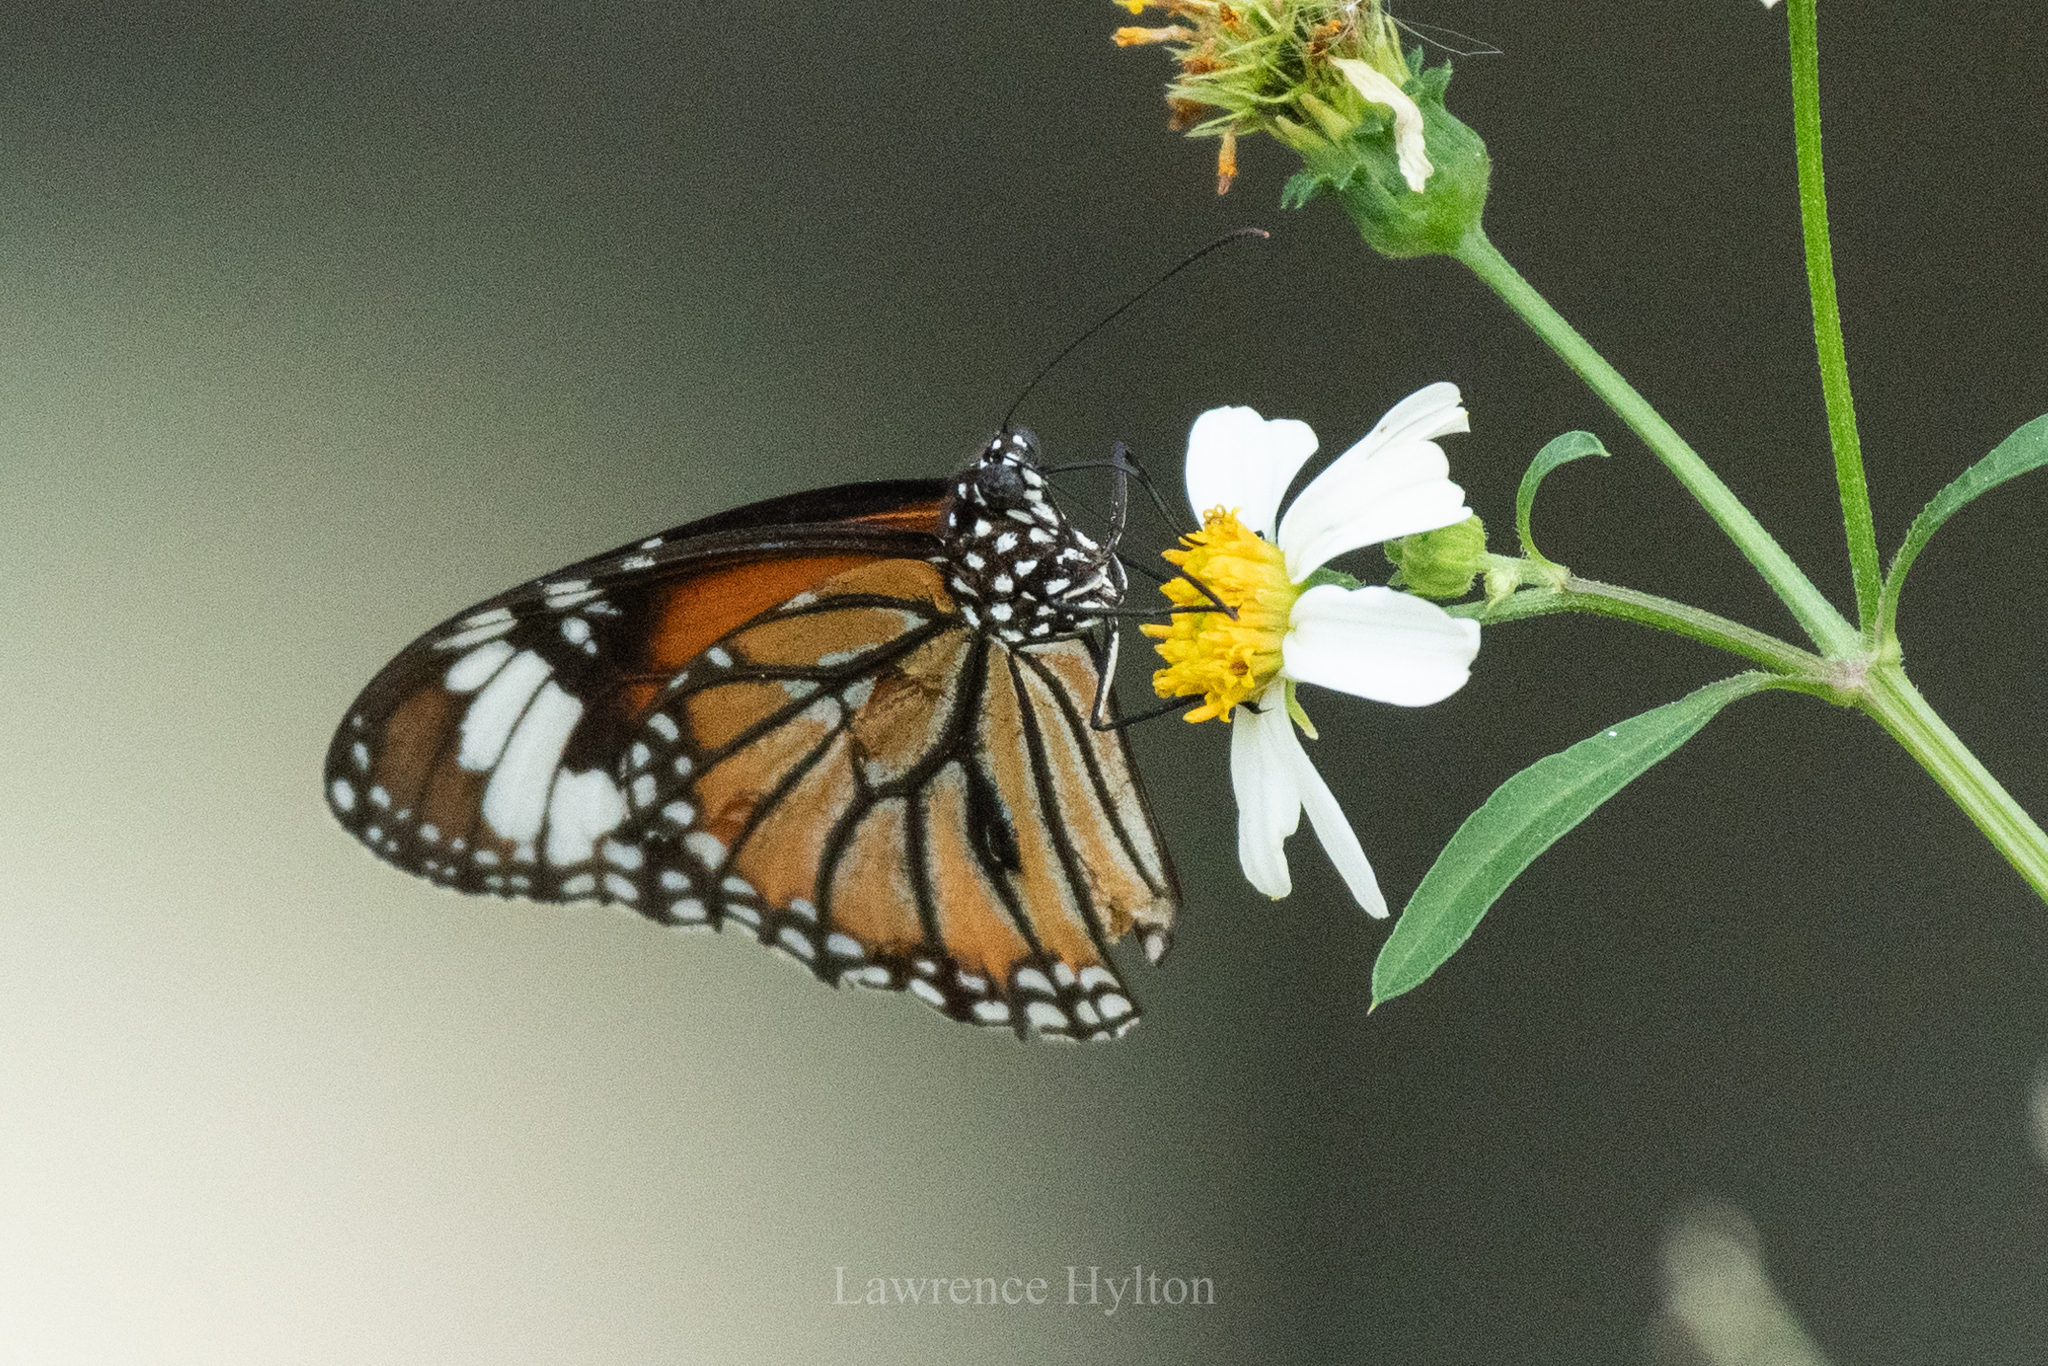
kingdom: Animalia
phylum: Arthropoda
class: Insecta
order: Lepidoptera
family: Nymphalidae
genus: Danaus
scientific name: Danaus genutia
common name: Common tiger butterfly
